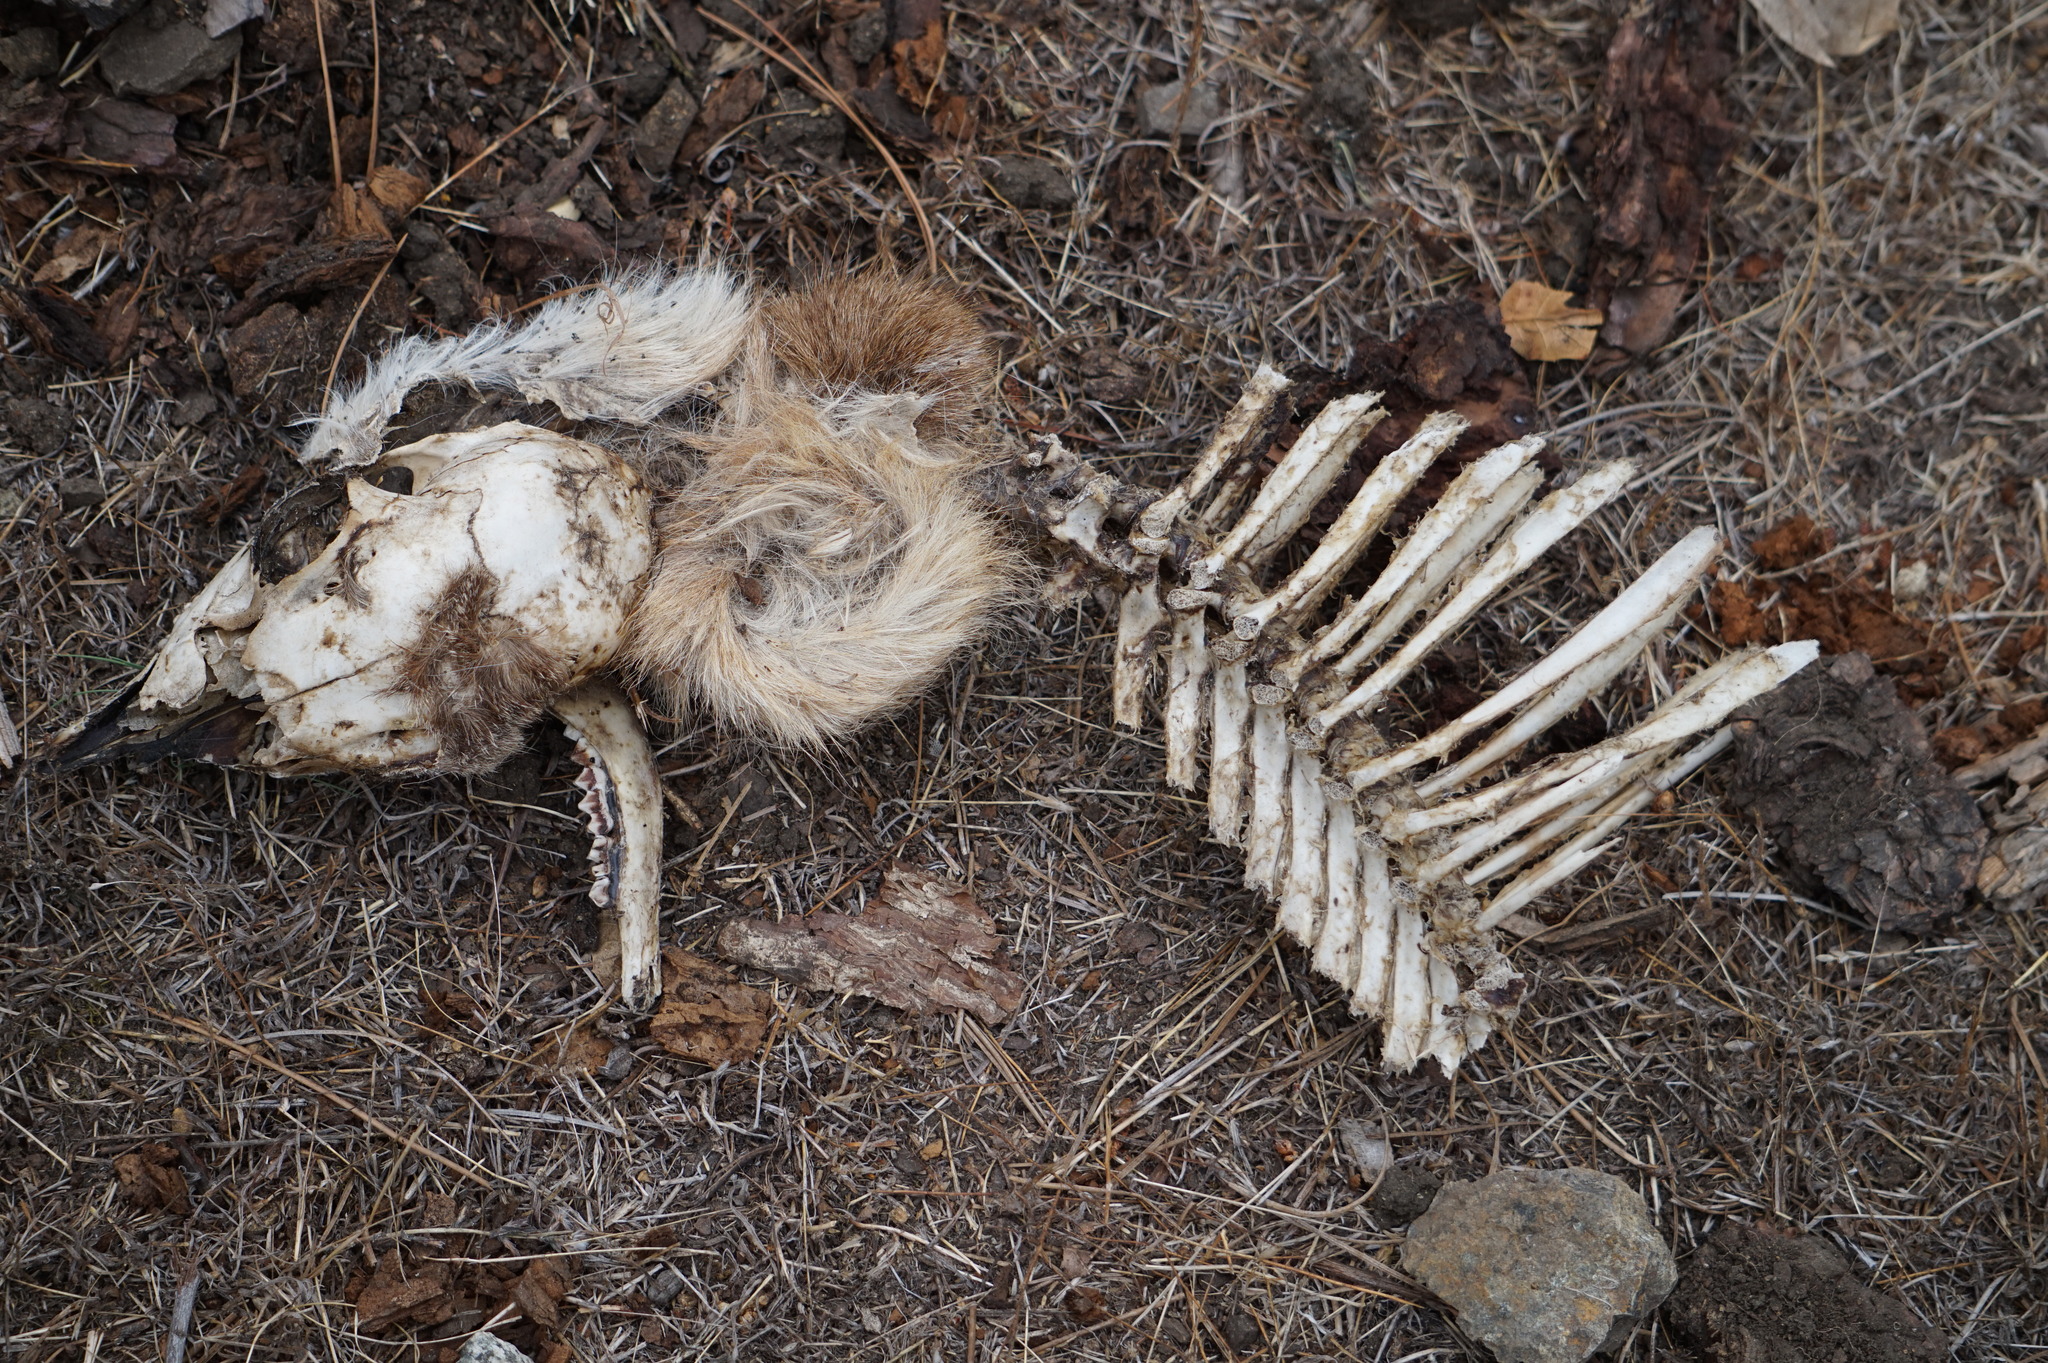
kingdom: Animalia
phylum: Chordata
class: Mammalia
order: Artiodactyla
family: Cervidae
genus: Odocoileus
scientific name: Odocoileus hemionus
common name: Mule deer
